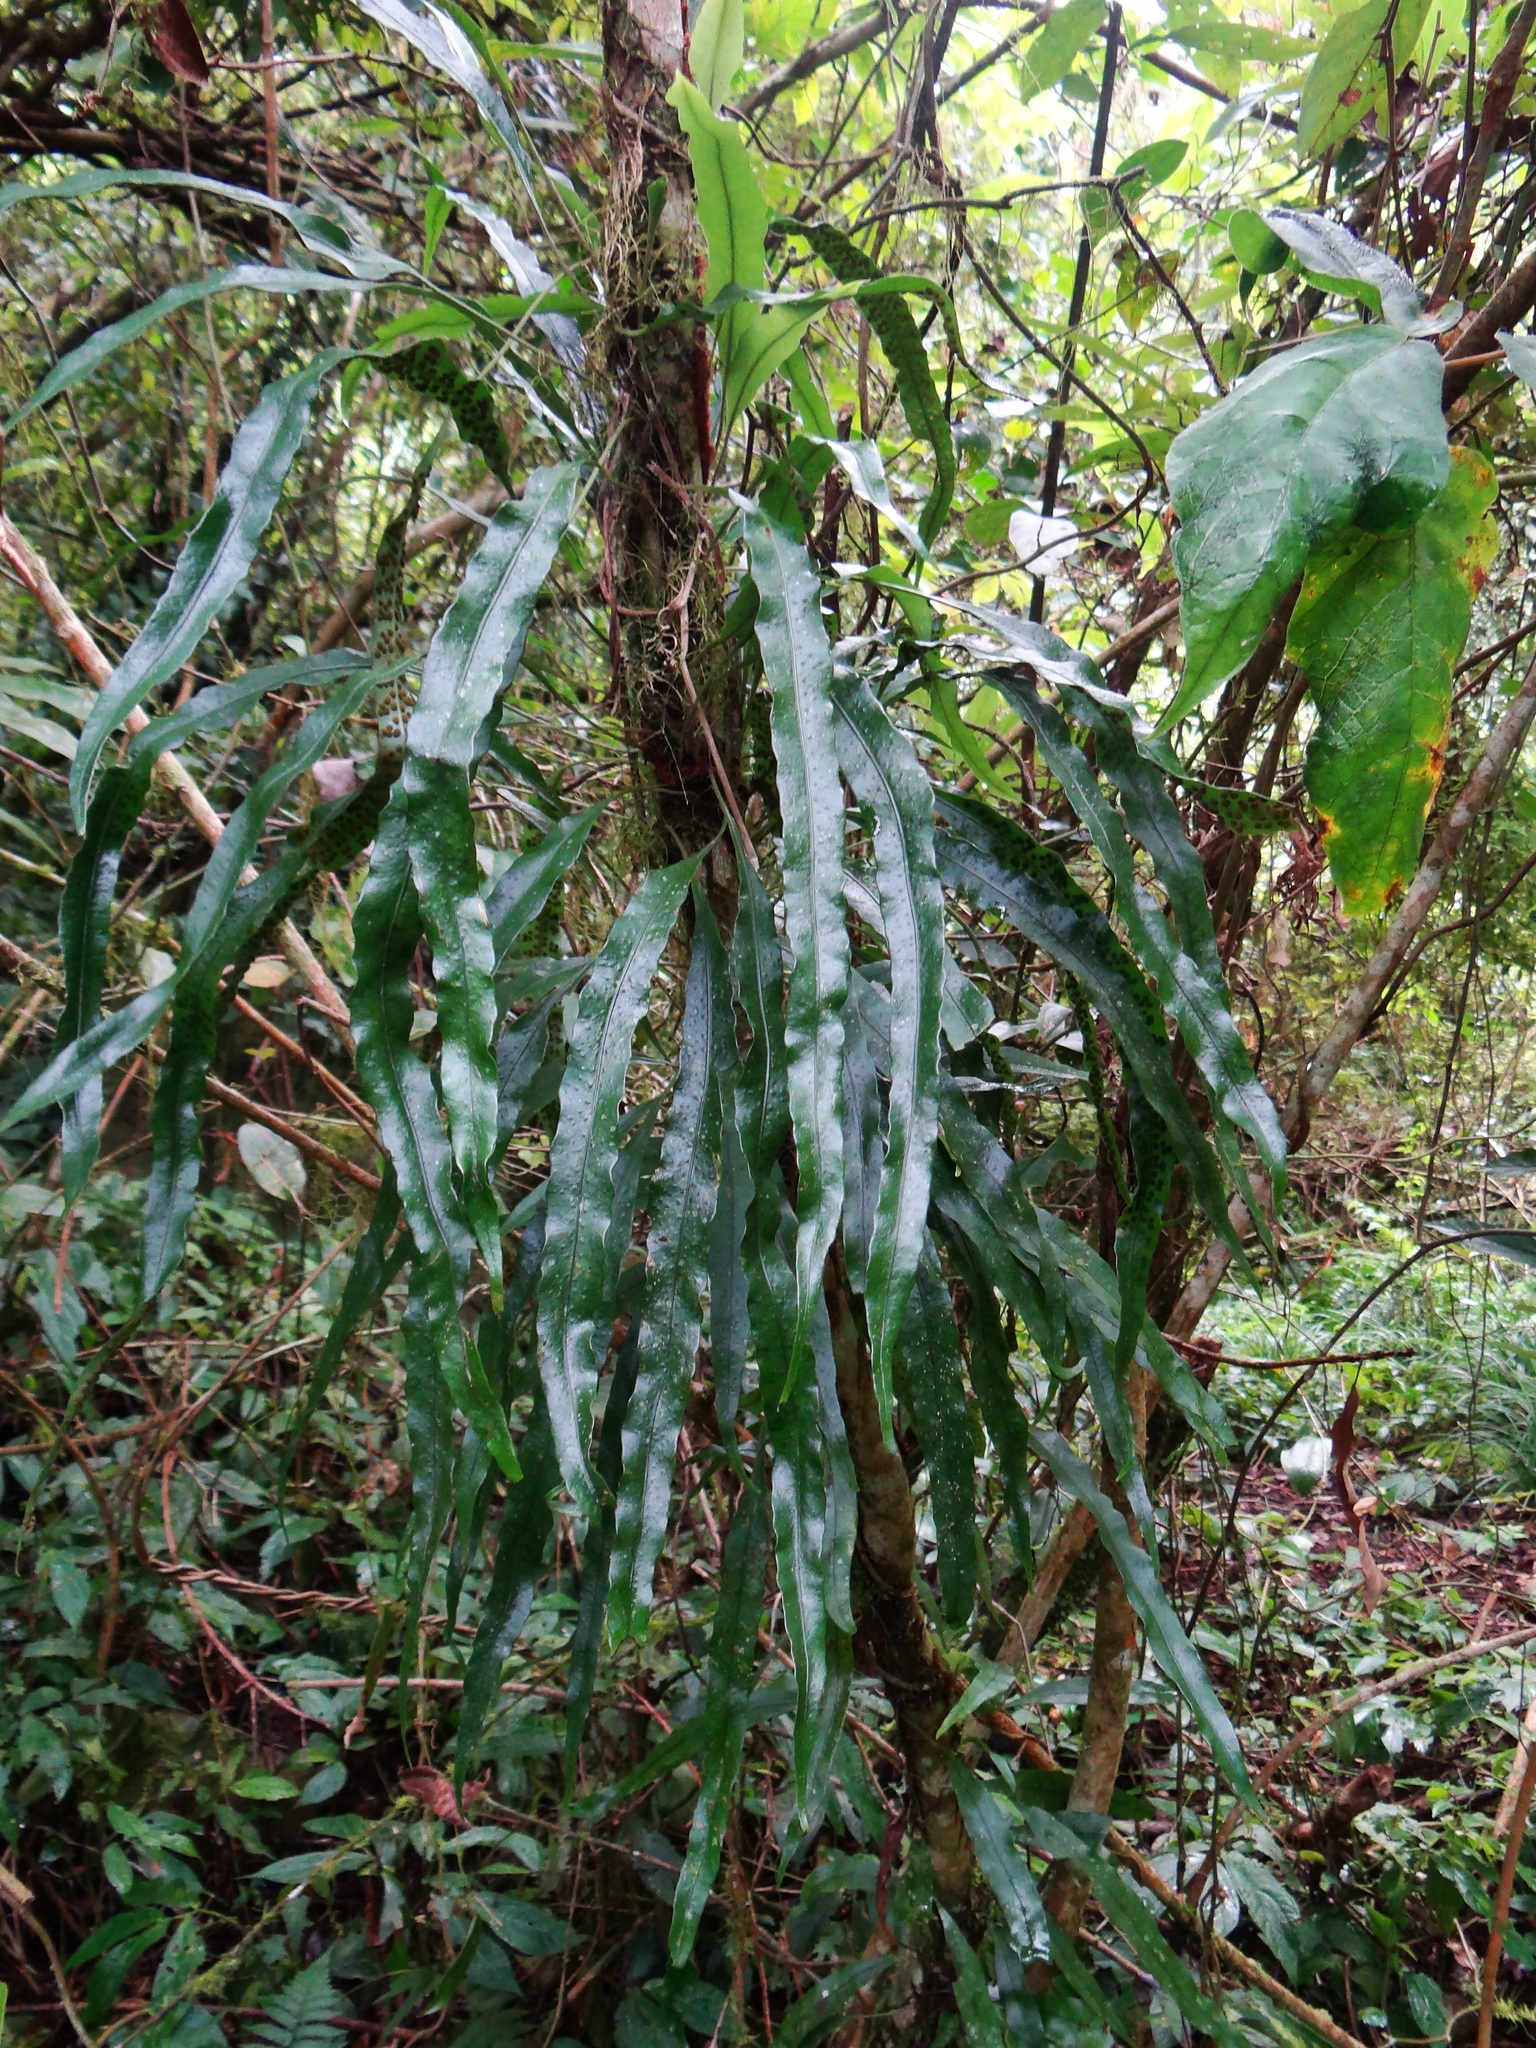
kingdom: Plantae
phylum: Tracheophyta
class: Polypodiopsida
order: Polypodiales
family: Polypodiaceae
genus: Lepisorus
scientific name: Lepisorus superficialis
